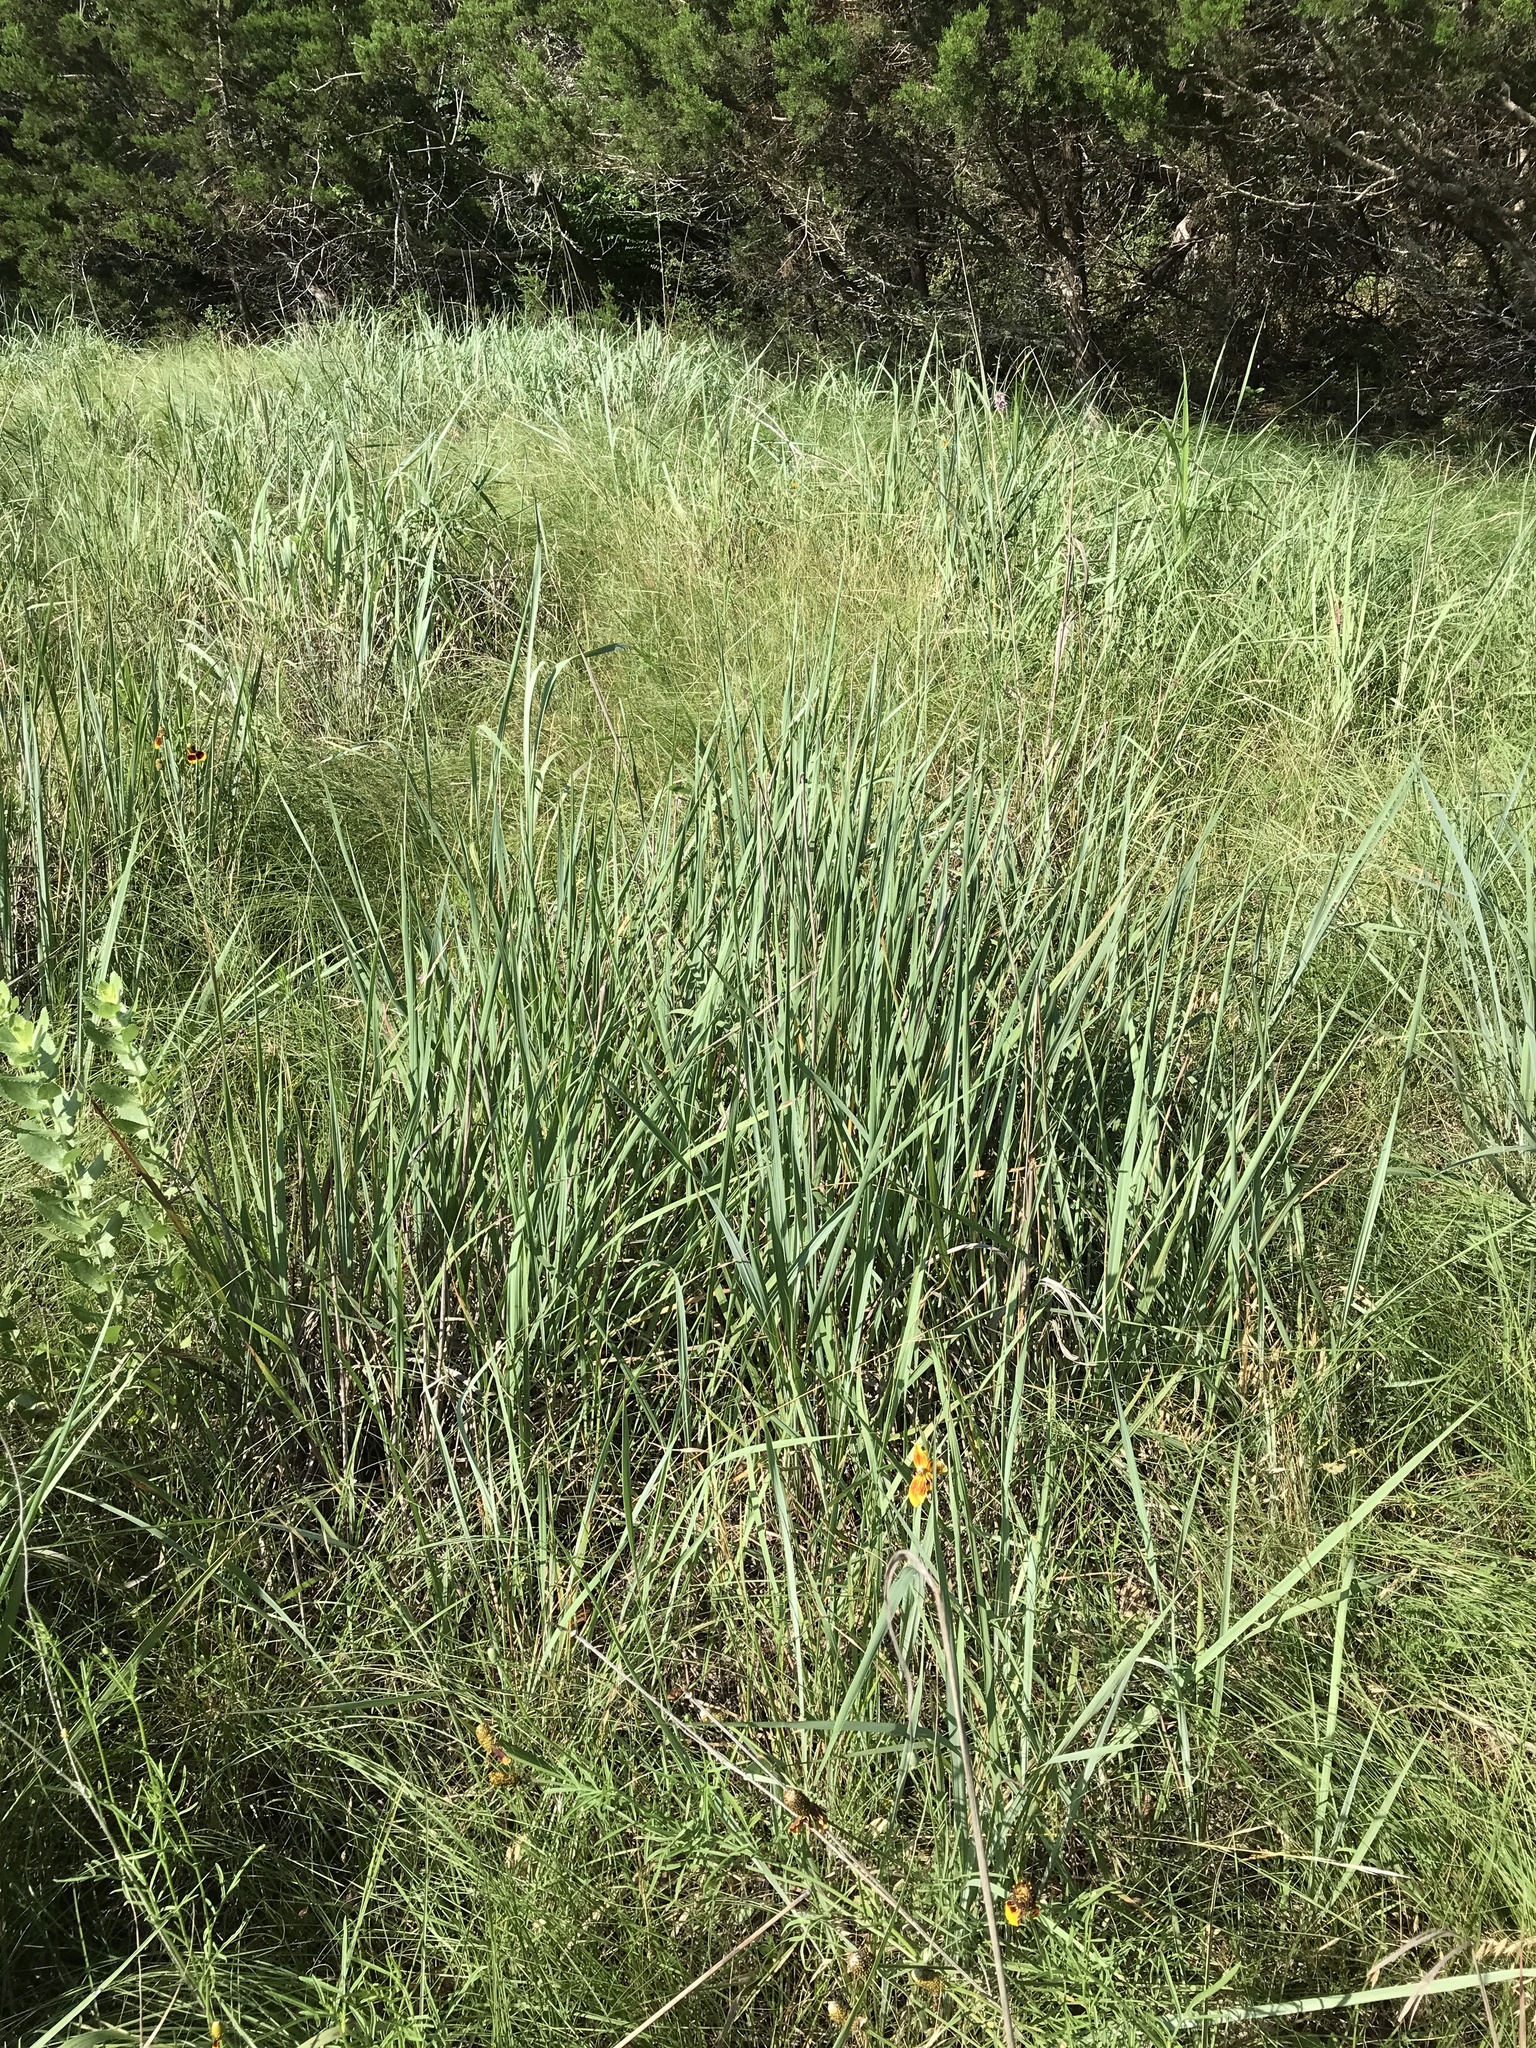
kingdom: Plantae
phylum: Tracheophyta
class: Liliopsida
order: Poales
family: Poaceae
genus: Sorghastrum
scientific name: Sorghastrum nutans
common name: Indian grass
